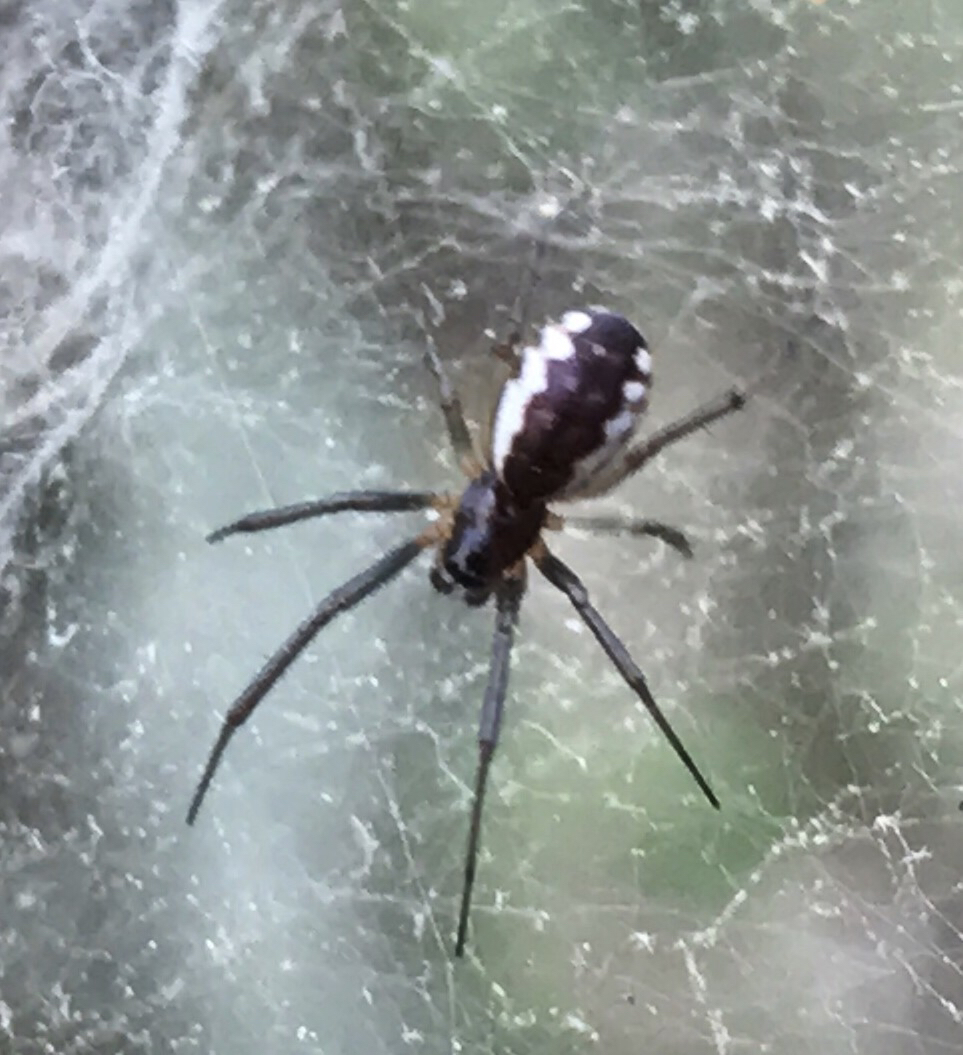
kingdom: Animalia
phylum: Arthropoda
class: Arachnida
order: Araneae
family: Linyphiidae
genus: Frontinella
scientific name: Frontinella pyramitela
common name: Bowl-and-doily spider
